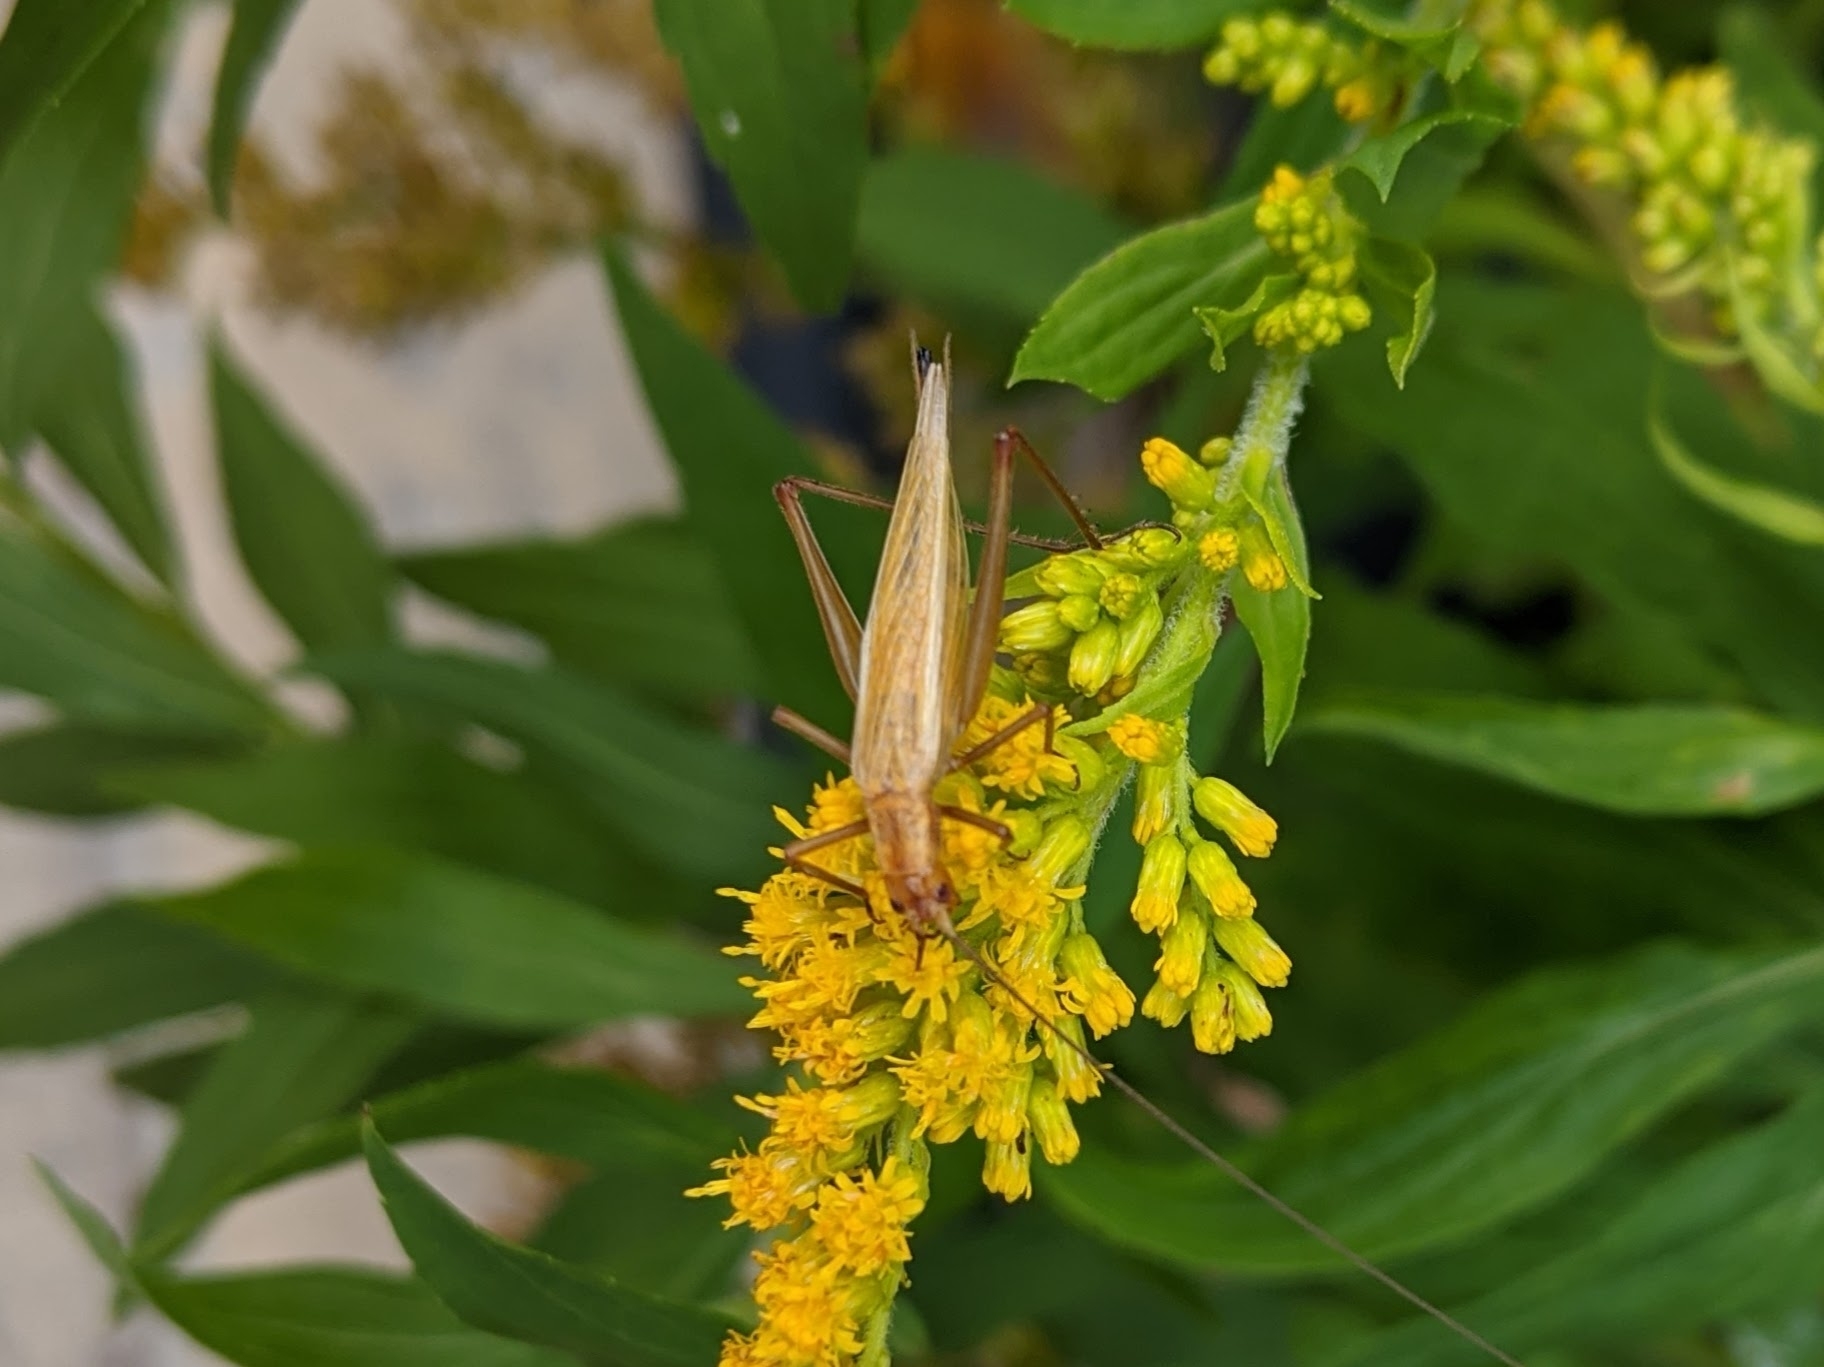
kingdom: Animalia
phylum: Arthropoda
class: Insecta
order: Orthoptera
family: Gryllidae
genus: Oecanthus
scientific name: Oecanthus pini
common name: Pine tree cricket
